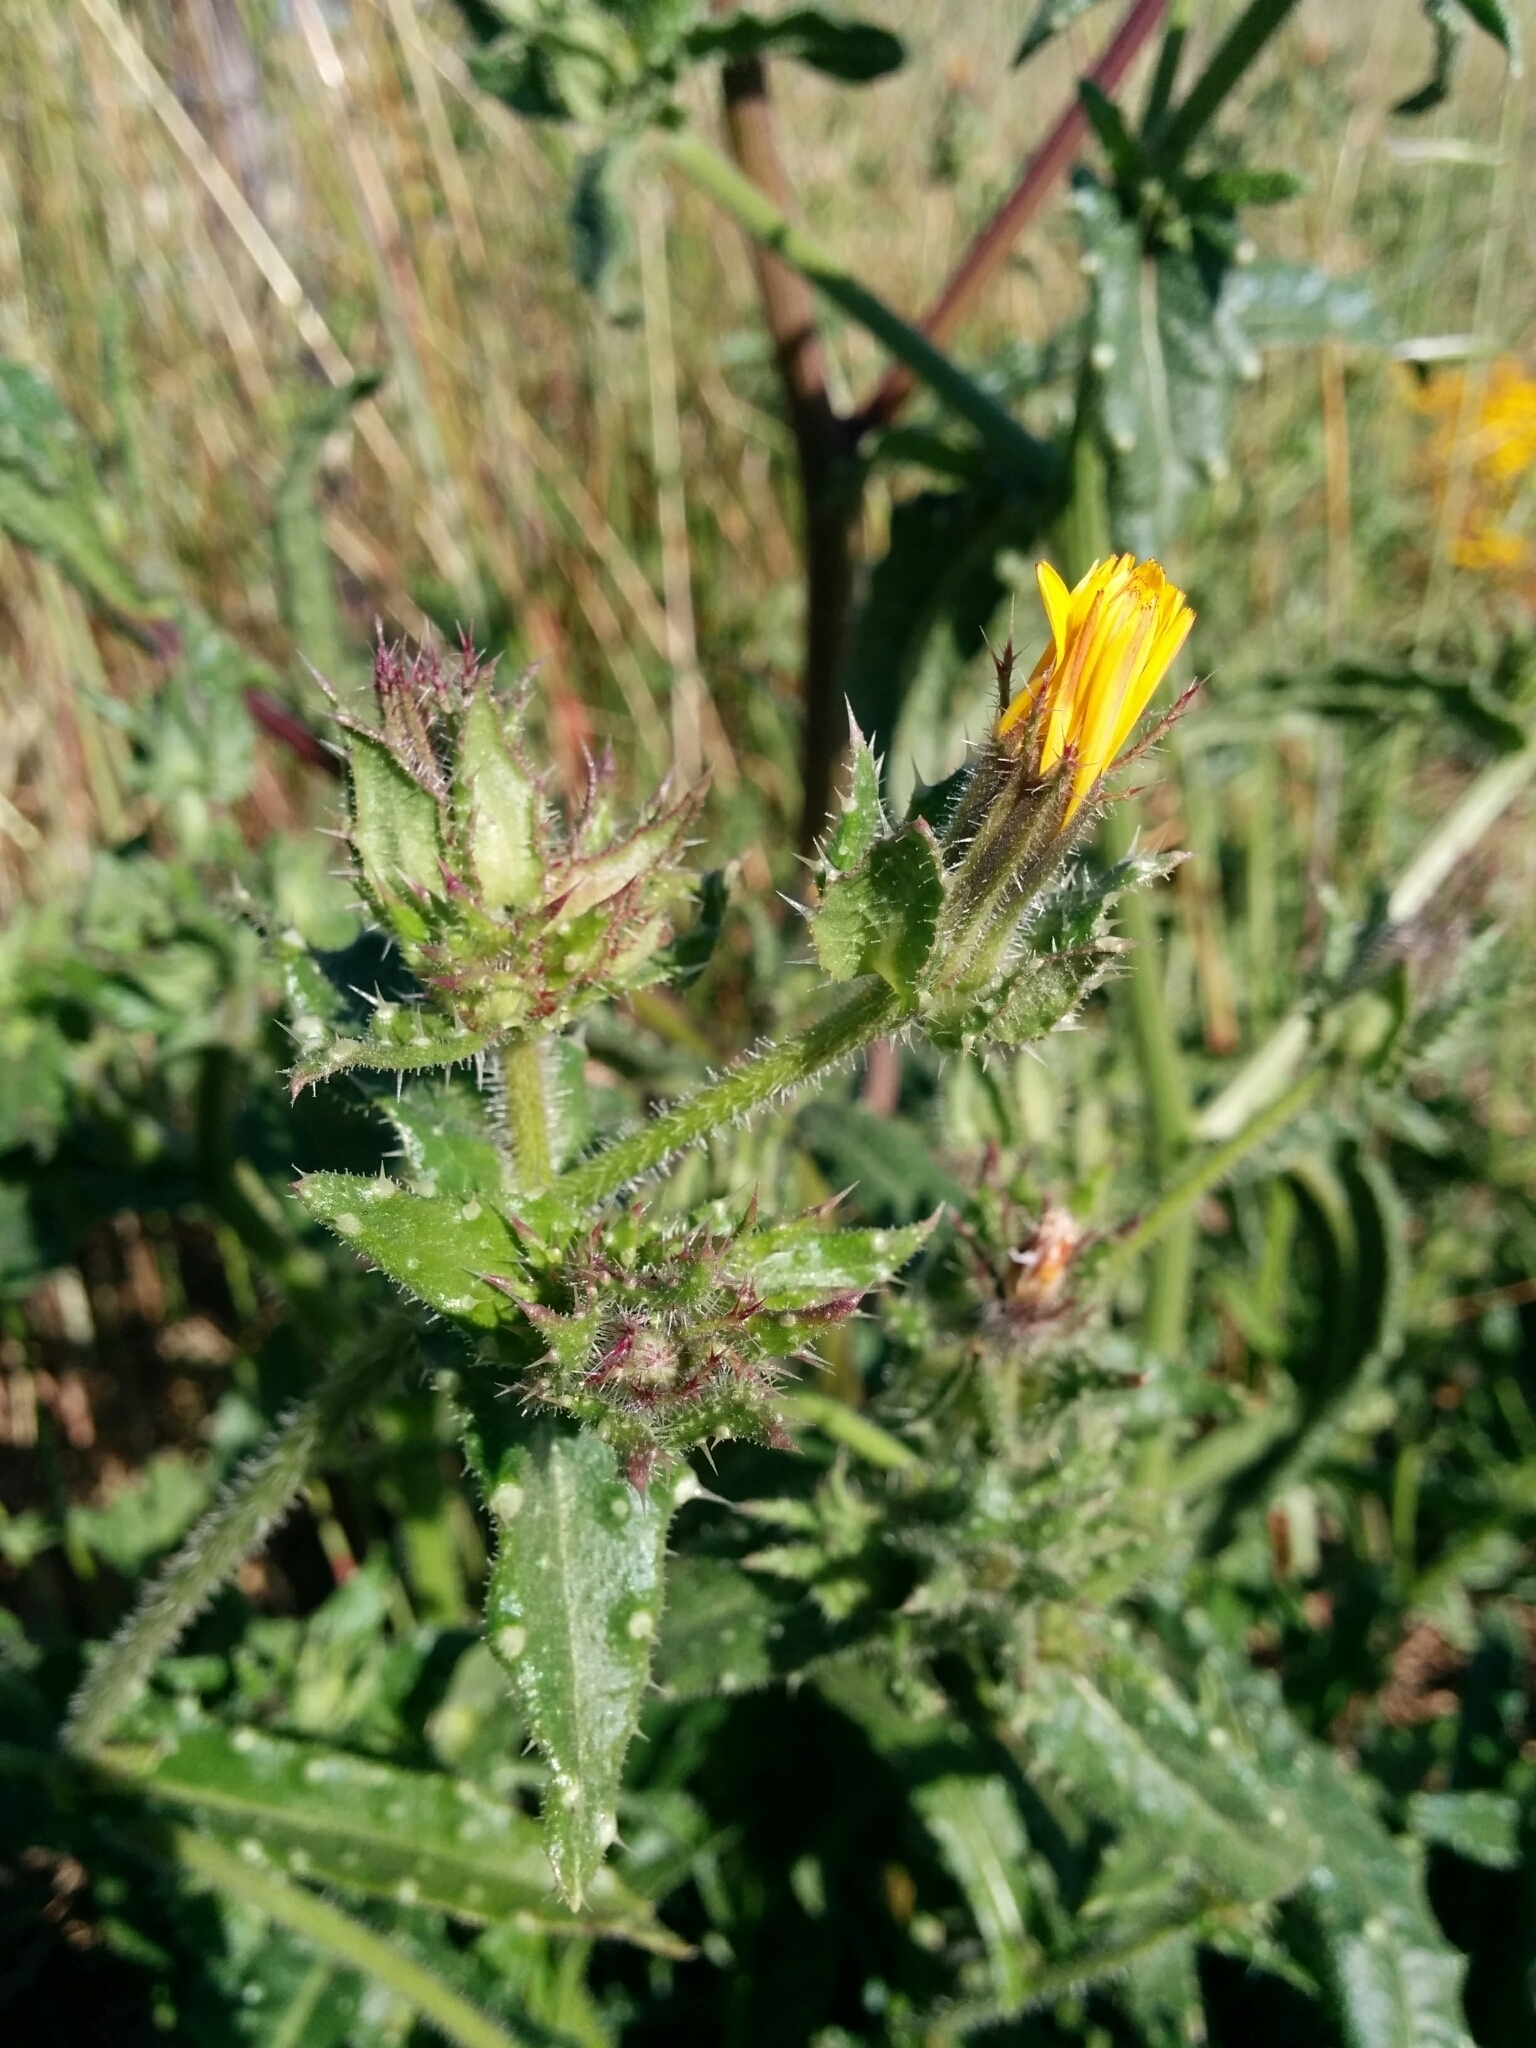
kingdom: Plantae
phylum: Tracheophyta
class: Magnoliopsida
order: Asterales
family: Asteraceae
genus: Helminthotheca
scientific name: Helminthotheca echioides
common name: Ox-tongue
